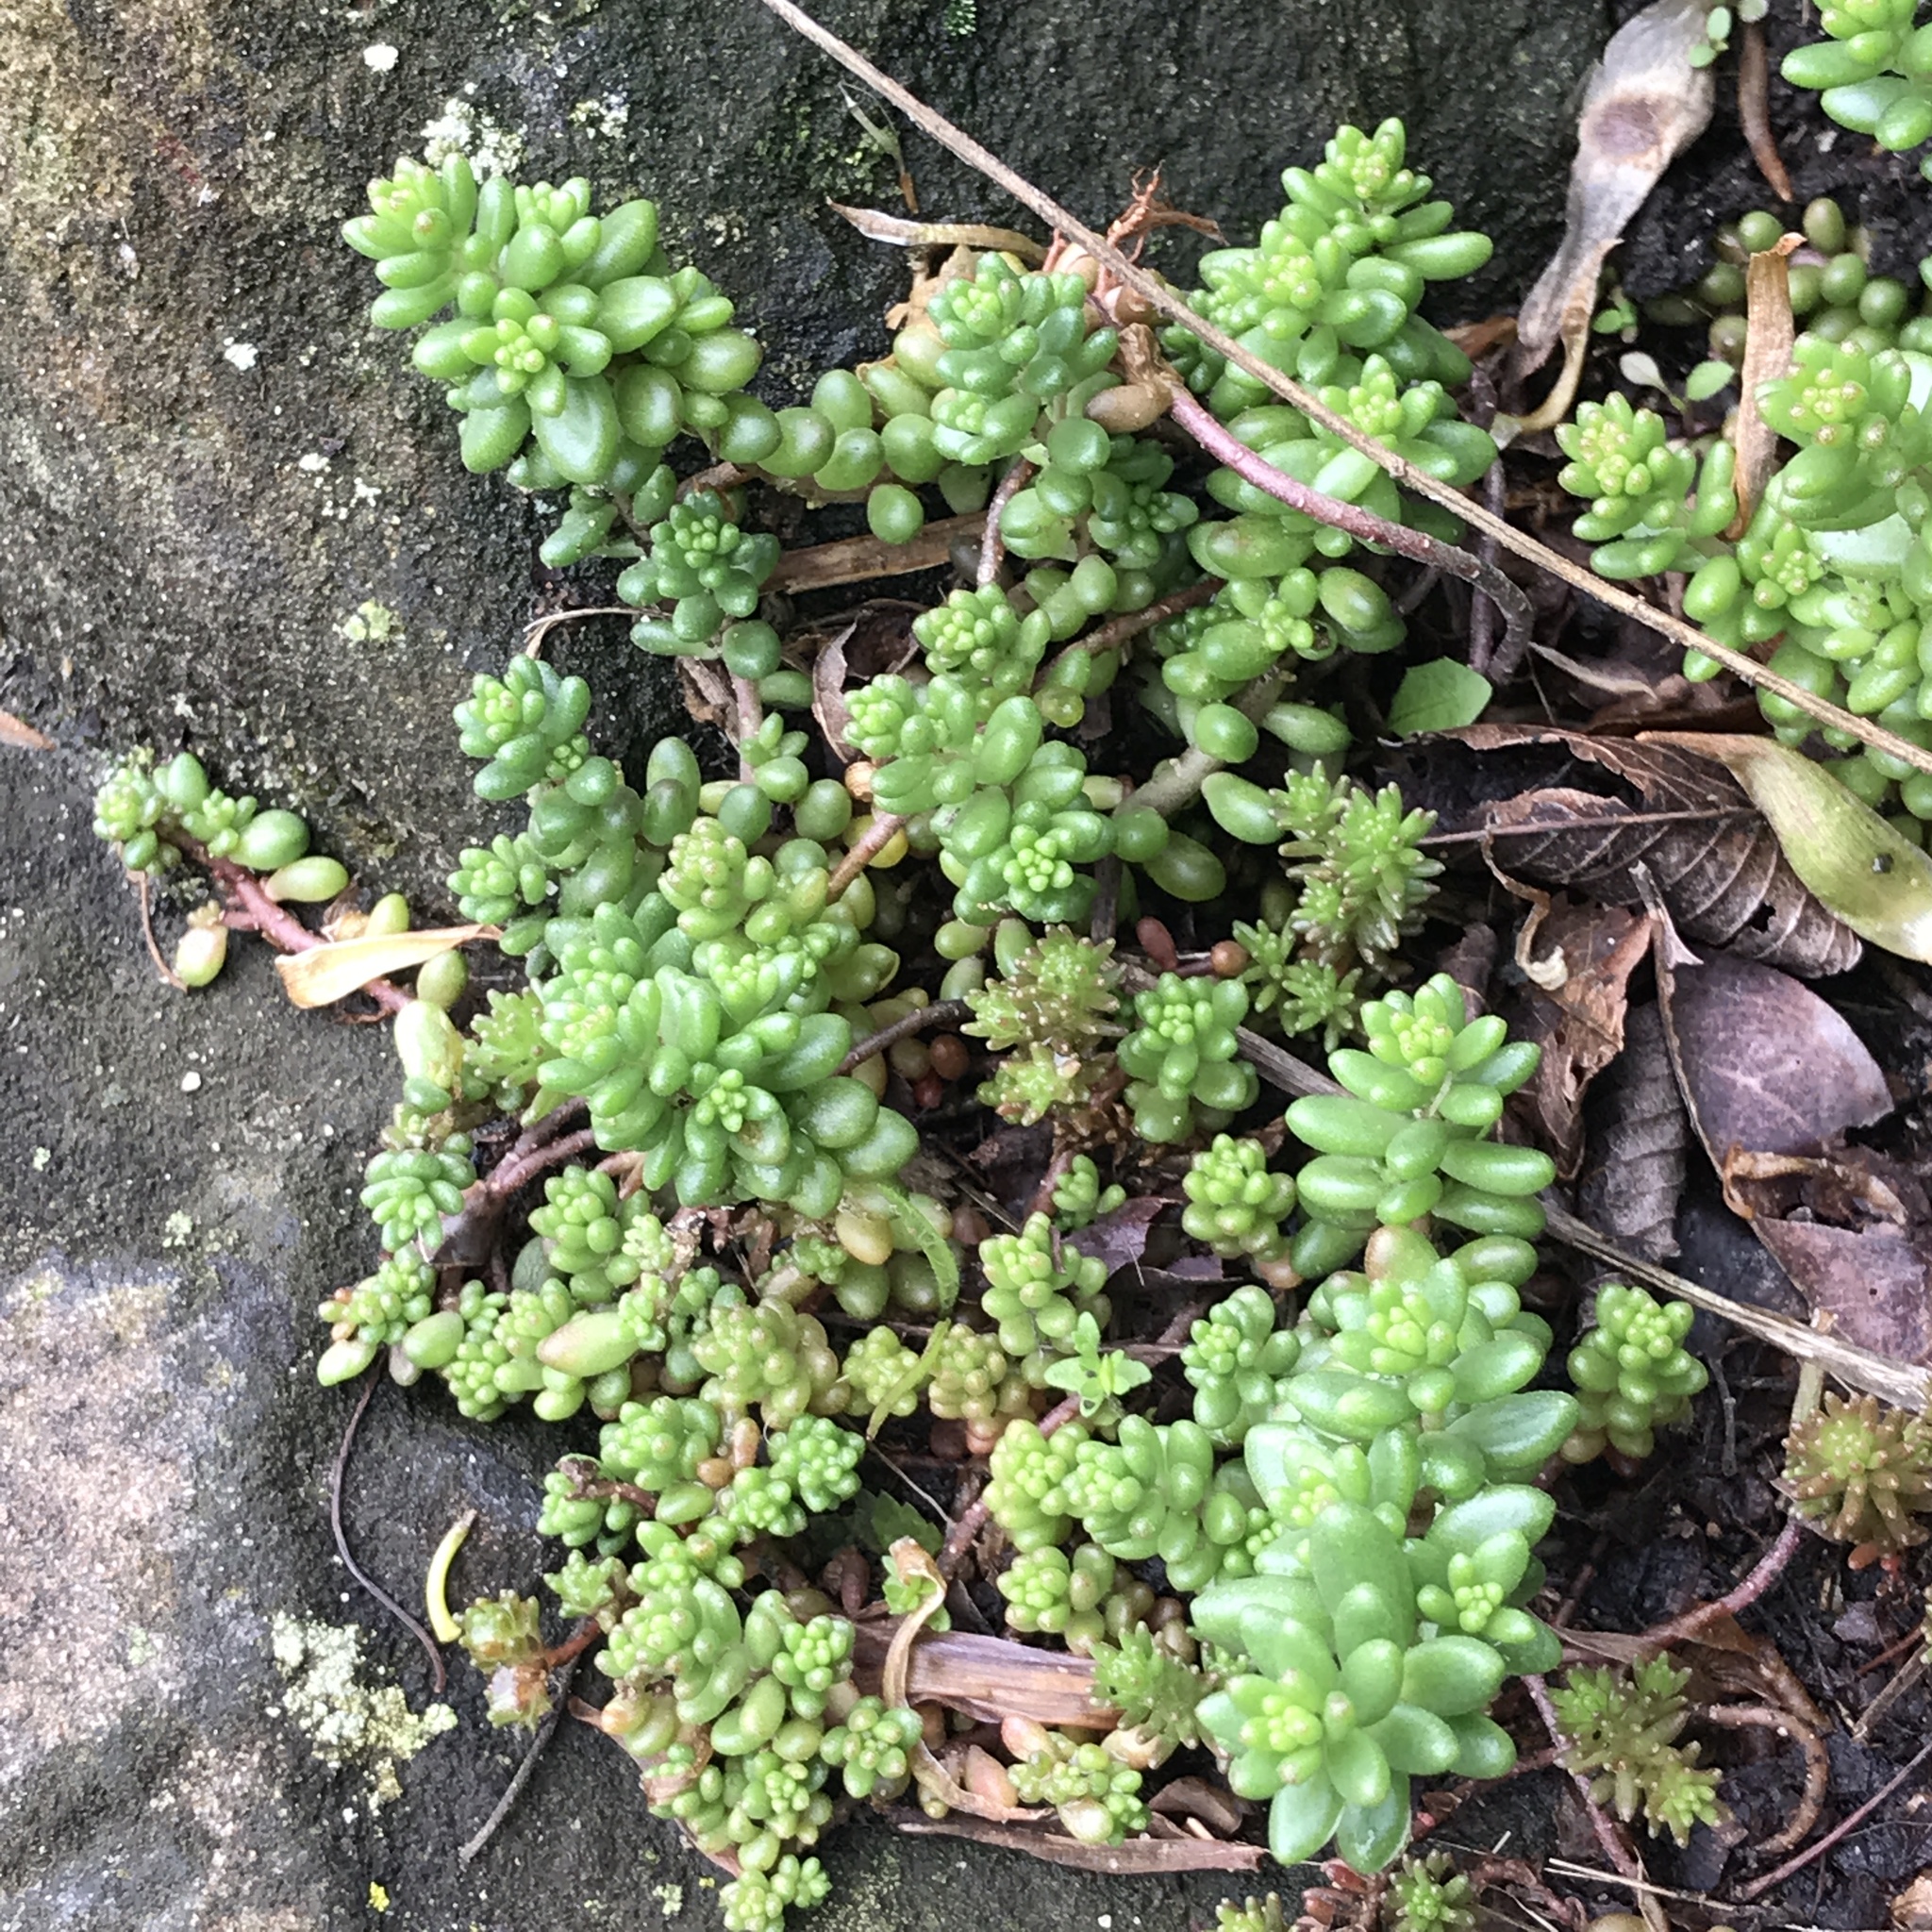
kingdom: Plantae
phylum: Tracheophyta
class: Magnoliopsida
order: Saxifragales
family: Crassulaceae
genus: Sedum
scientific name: Sedum album
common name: White stonecrop
